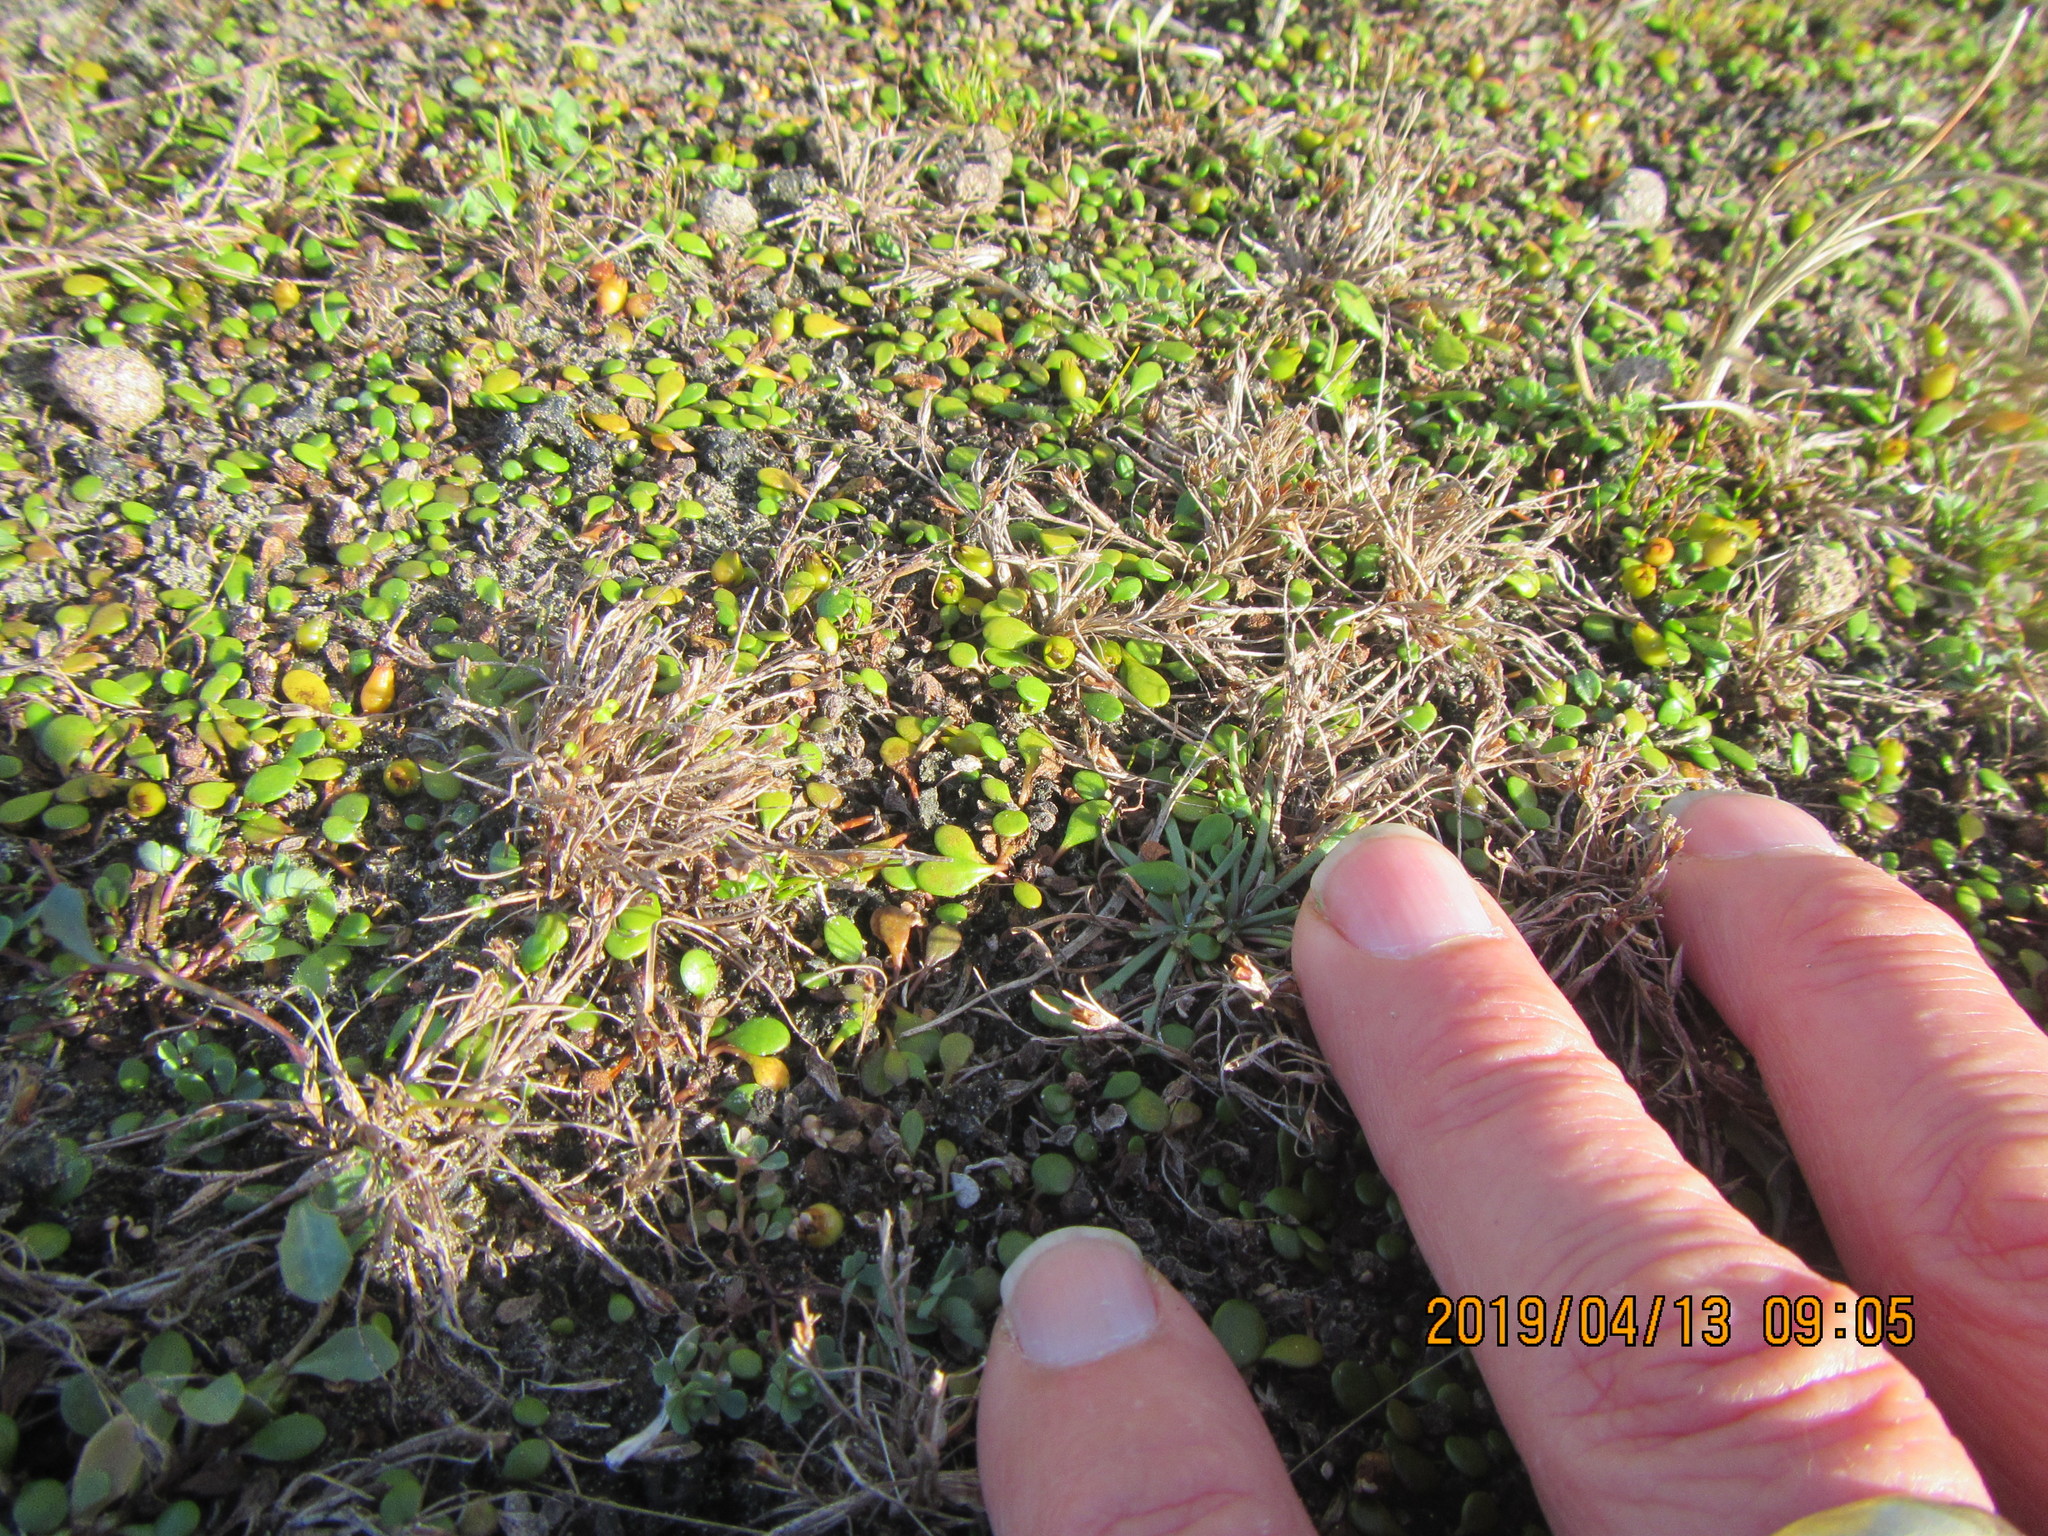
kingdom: Plantae
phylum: Tracheophyta
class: Liliopsida
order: Poales
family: Juncaceae
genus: Juncus
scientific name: Juncus bufonius
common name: Toad rush
